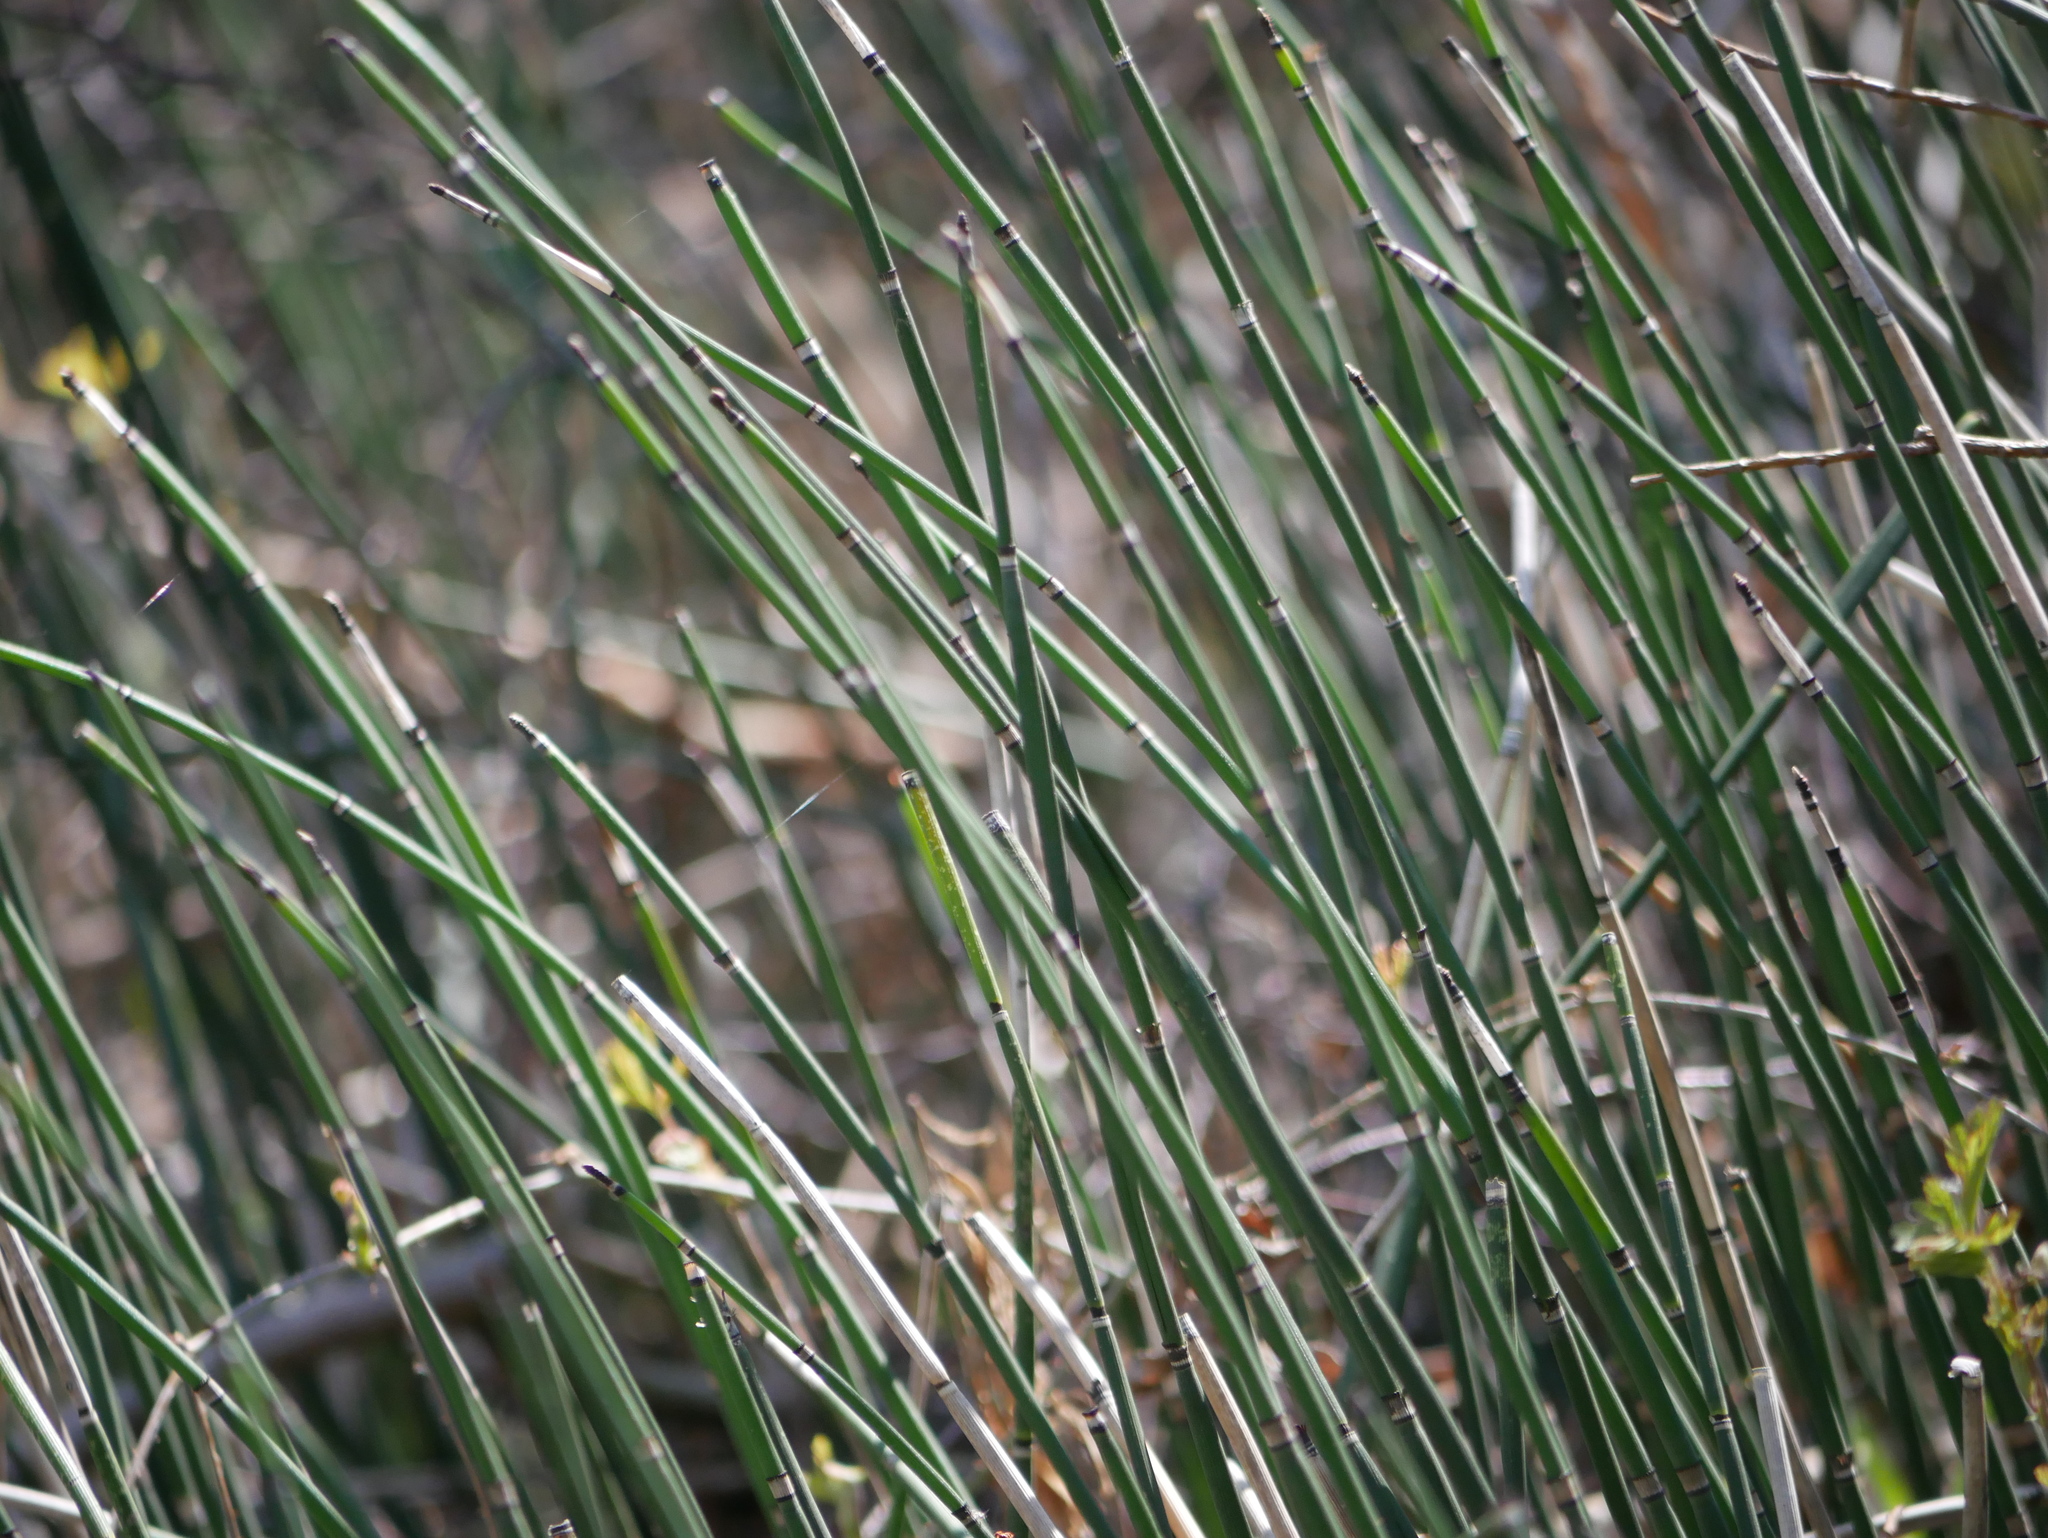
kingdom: Plantae
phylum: Tracheophyta
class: Polypodiopsida
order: Equisetales
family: Equisetaceae
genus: Equisetum
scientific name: Equisetum hyemale
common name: Rough horsetail
